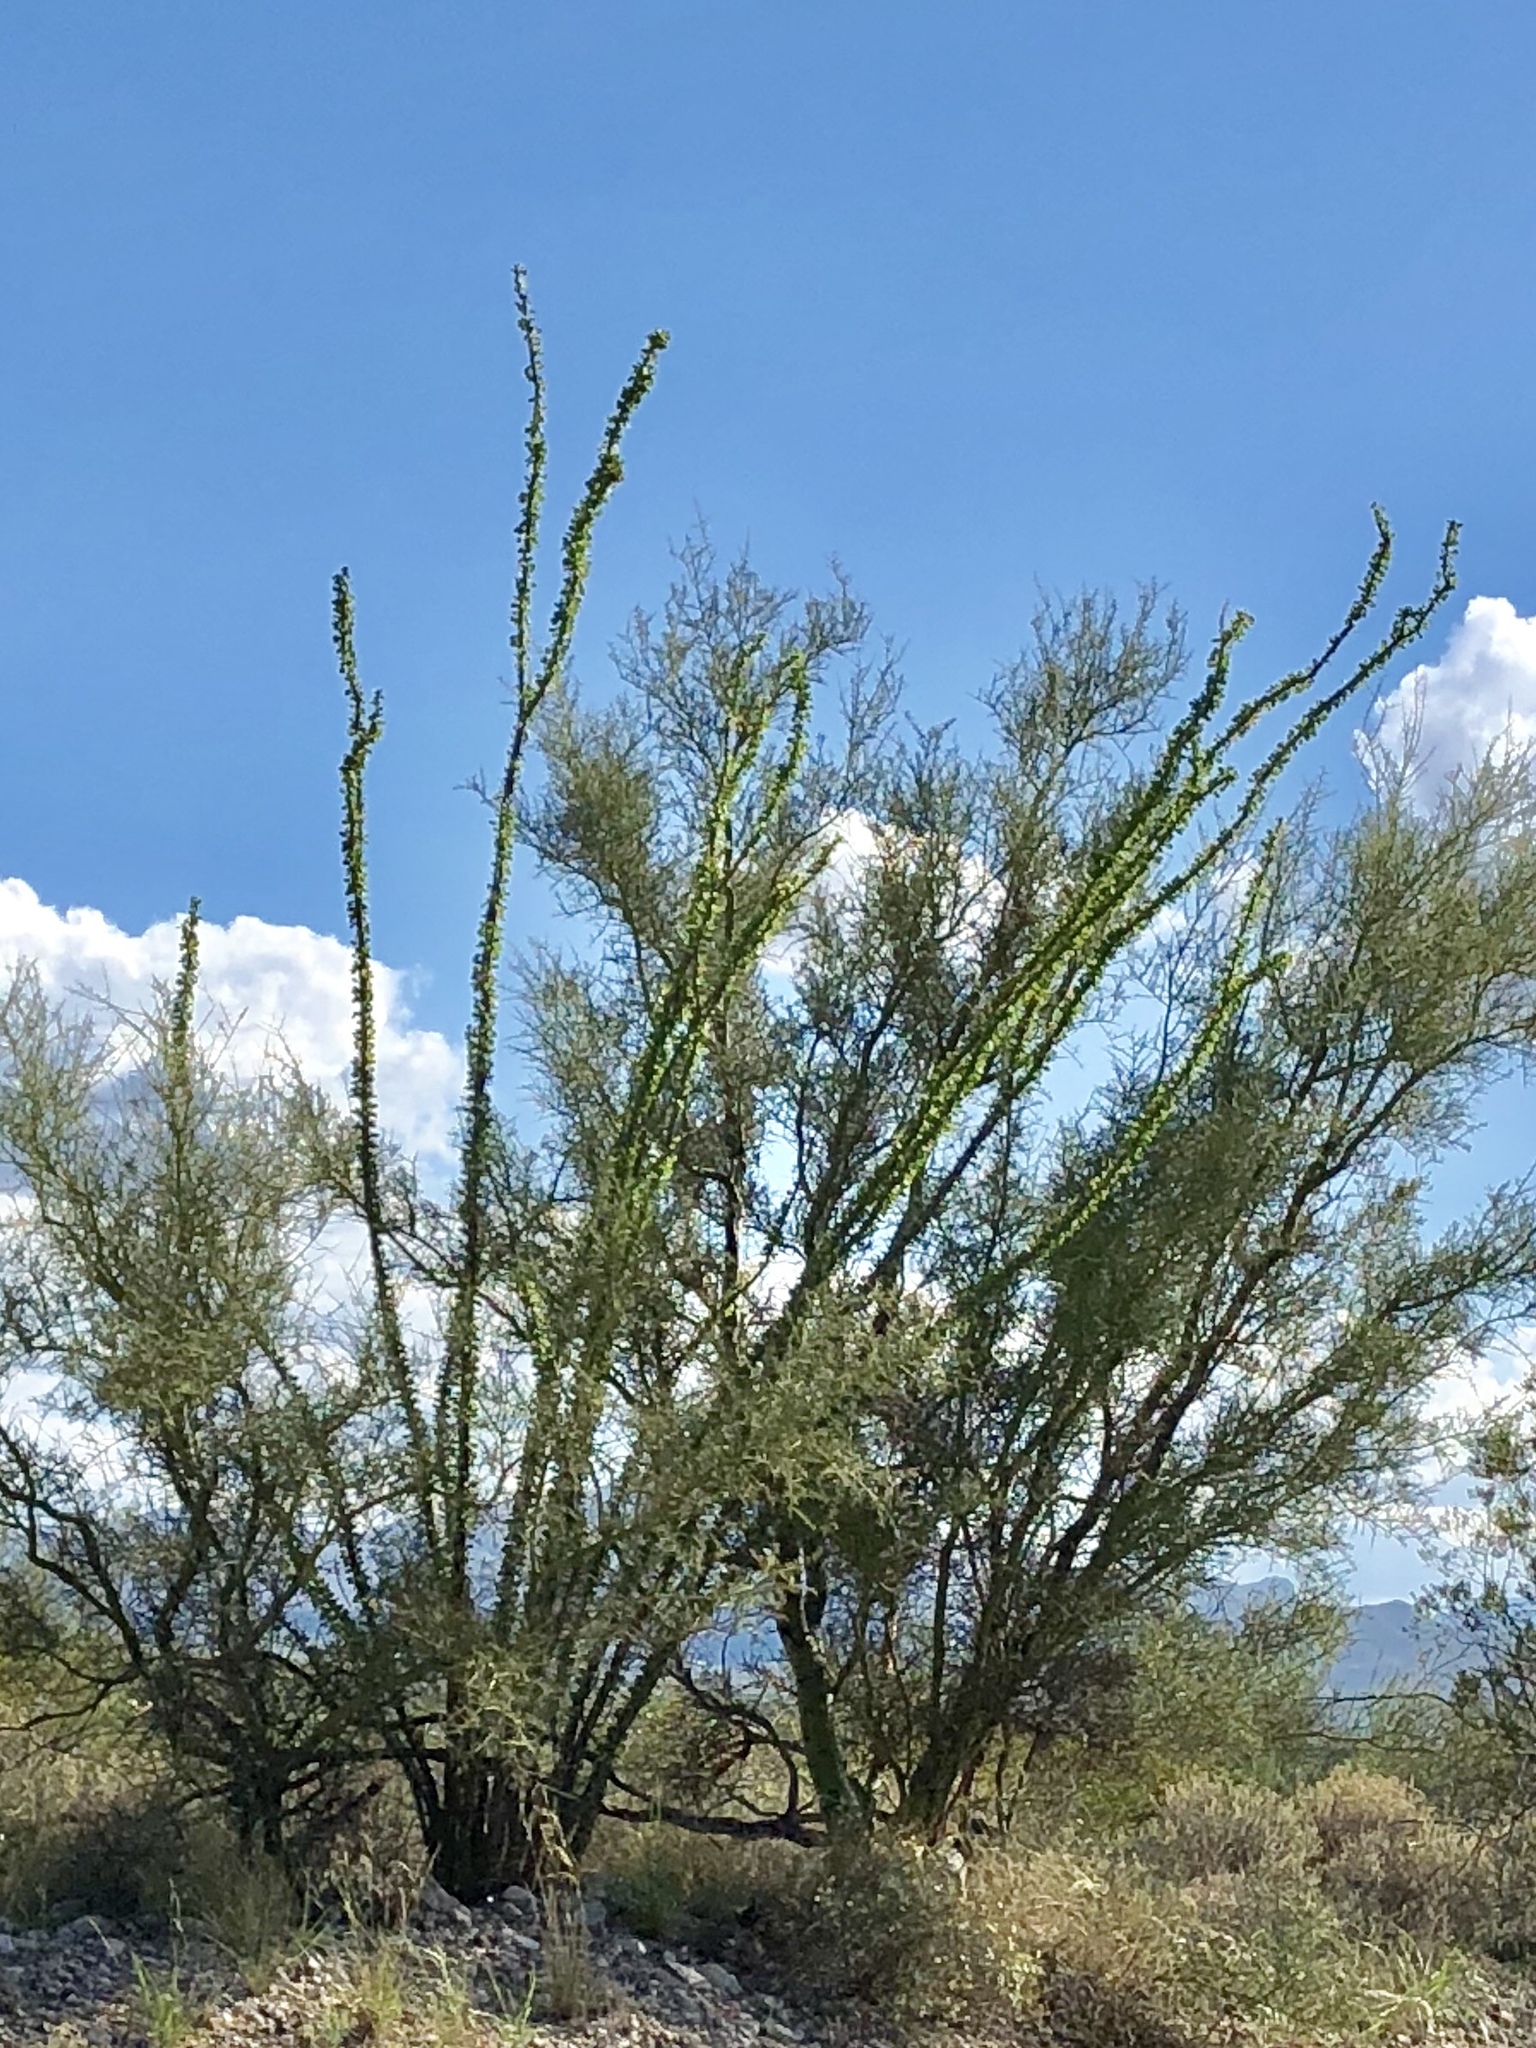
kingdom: Plantae
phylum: Tracheophyta
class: Magnoliopsida
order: Ericales
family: Fouquieriaceae
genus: Fouquieria
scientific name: Fouquieria splendens
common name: Vine-cactus
